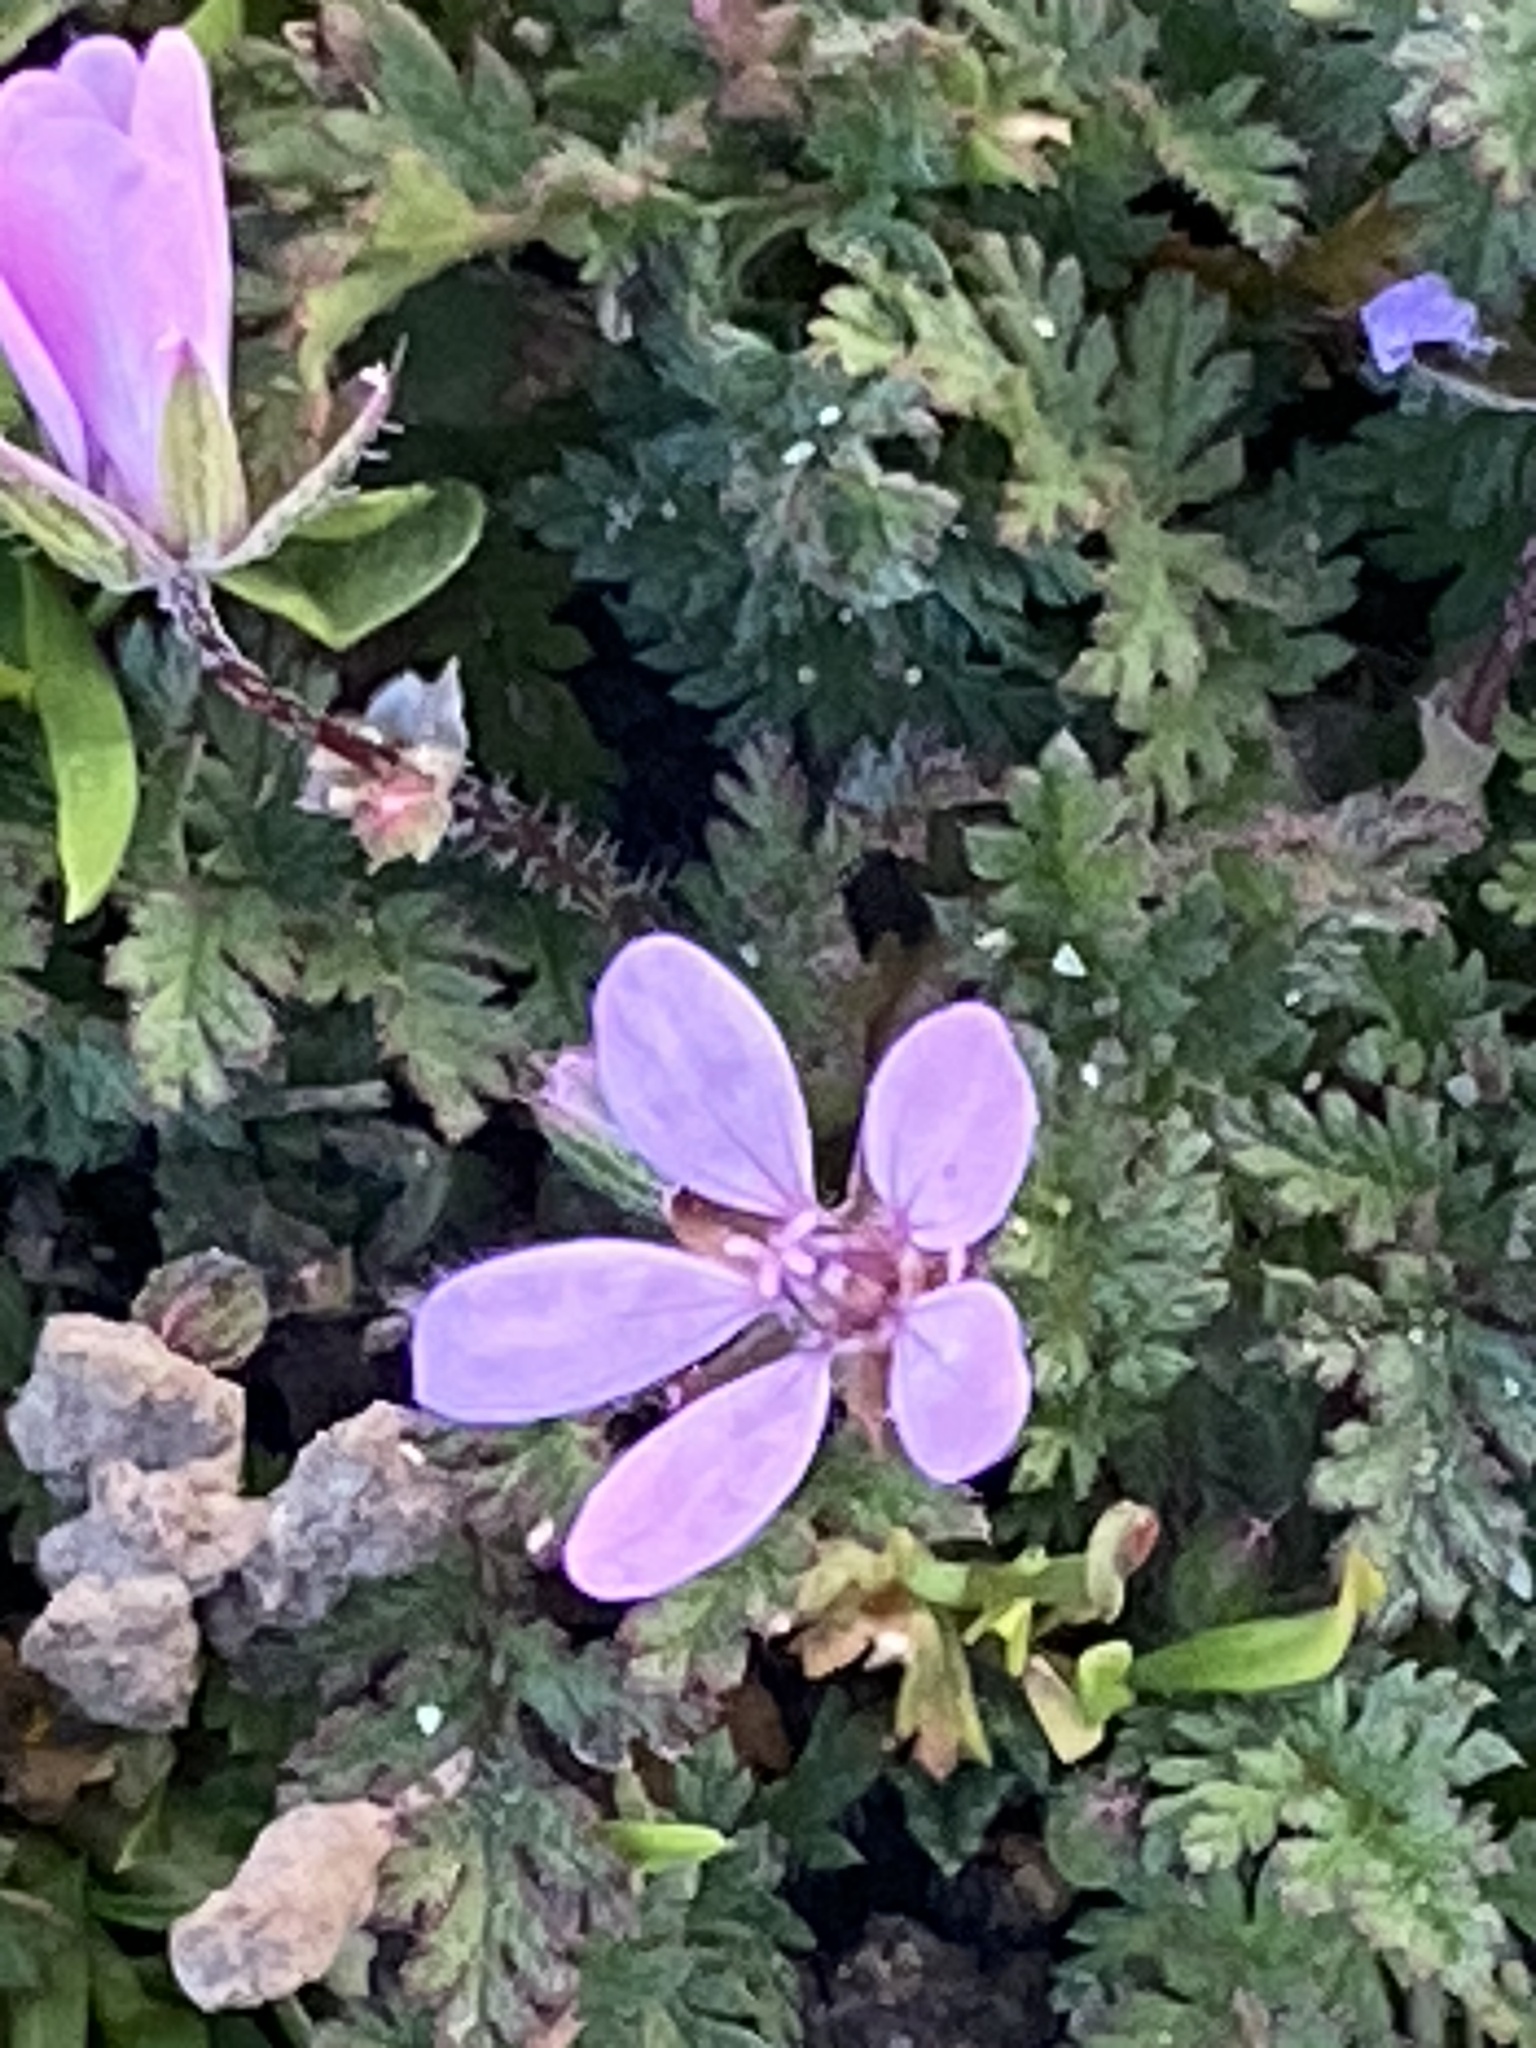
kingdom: Plantae
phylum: Tracheophyta
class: Magnoliopsida
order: Geraniales
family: Geraniaceae
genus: Erodium
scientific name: Erodium cicutarium
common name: Common stork's-bill
